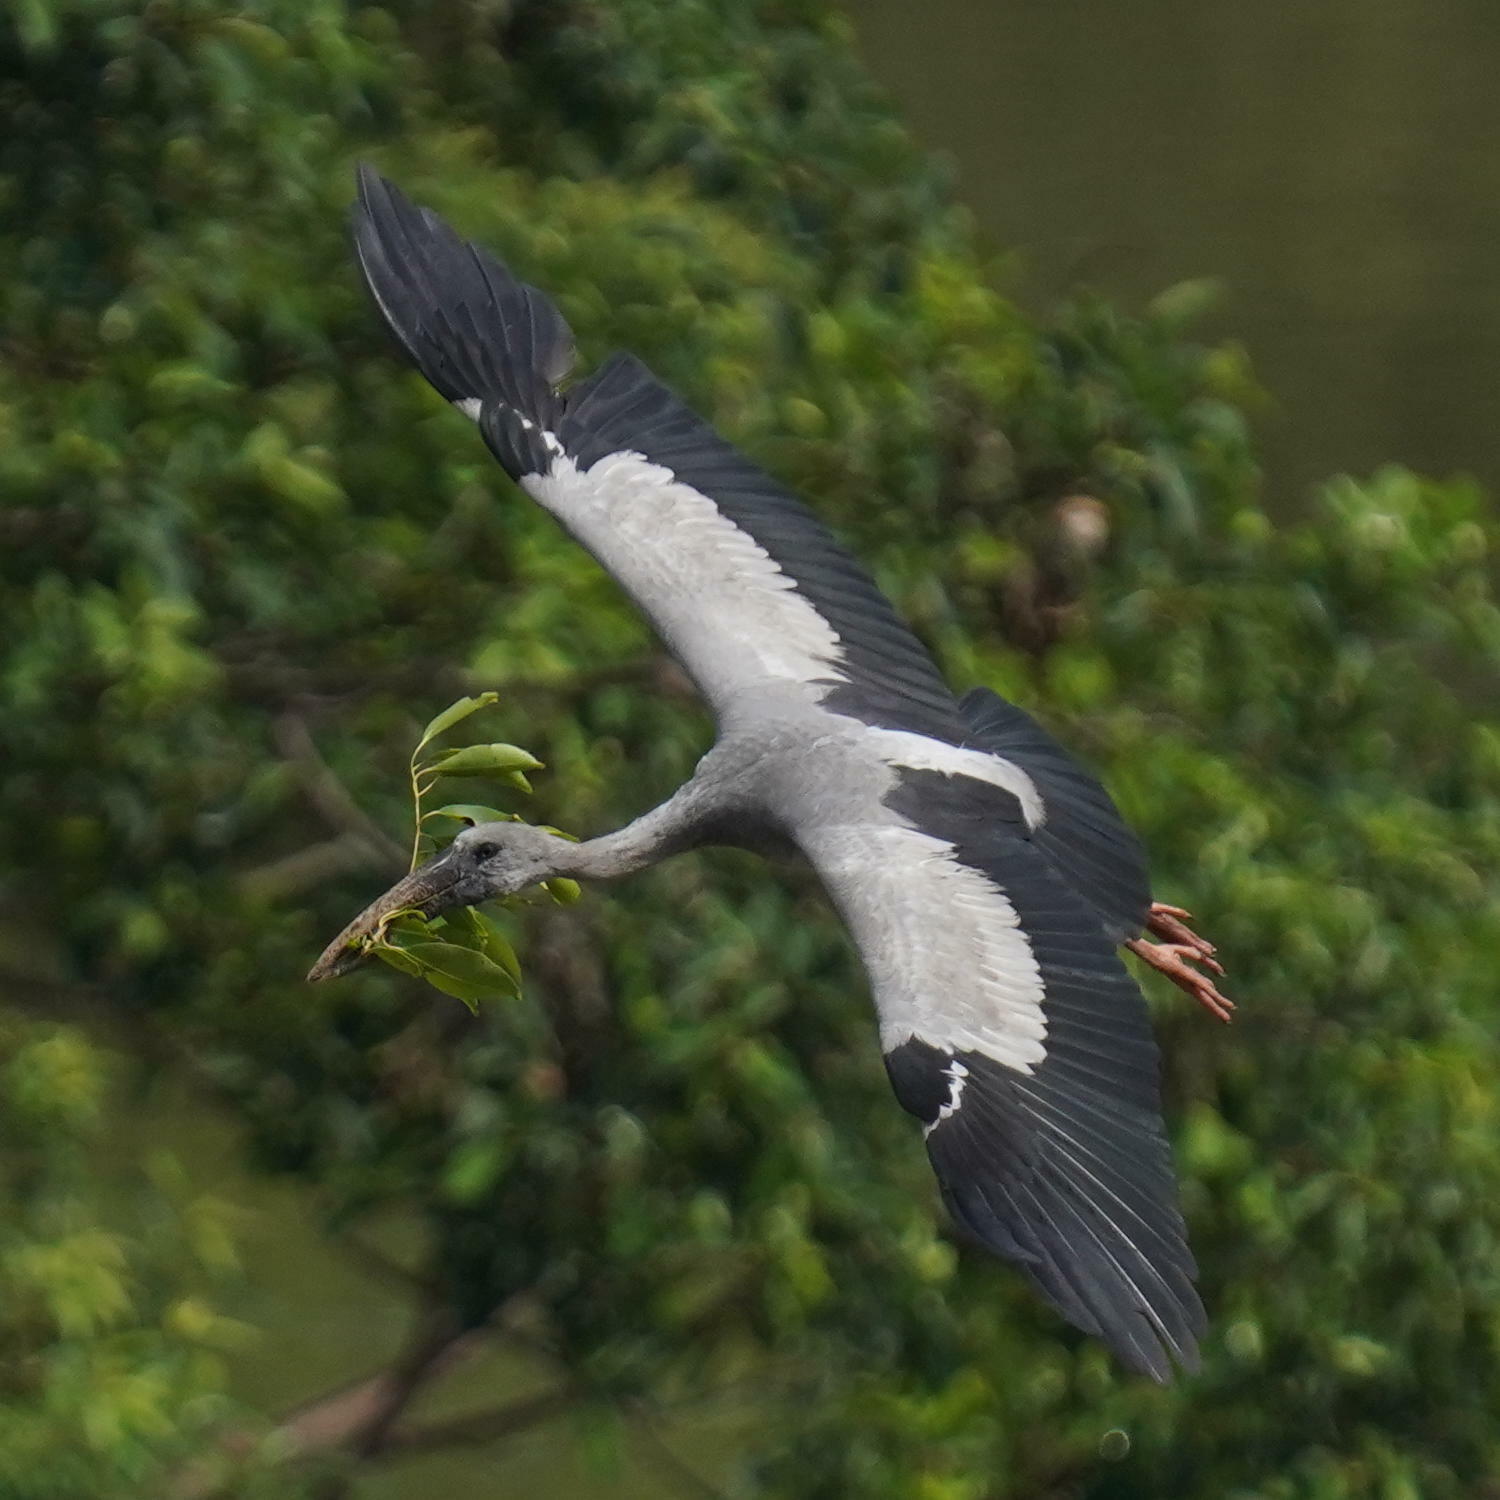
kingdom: Animalia
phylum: Chordata
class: Aves
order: Ciconiiformes
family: Ciconiidae
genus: Anastomus
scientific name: Anastomus oscitans
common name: Asian openbill
